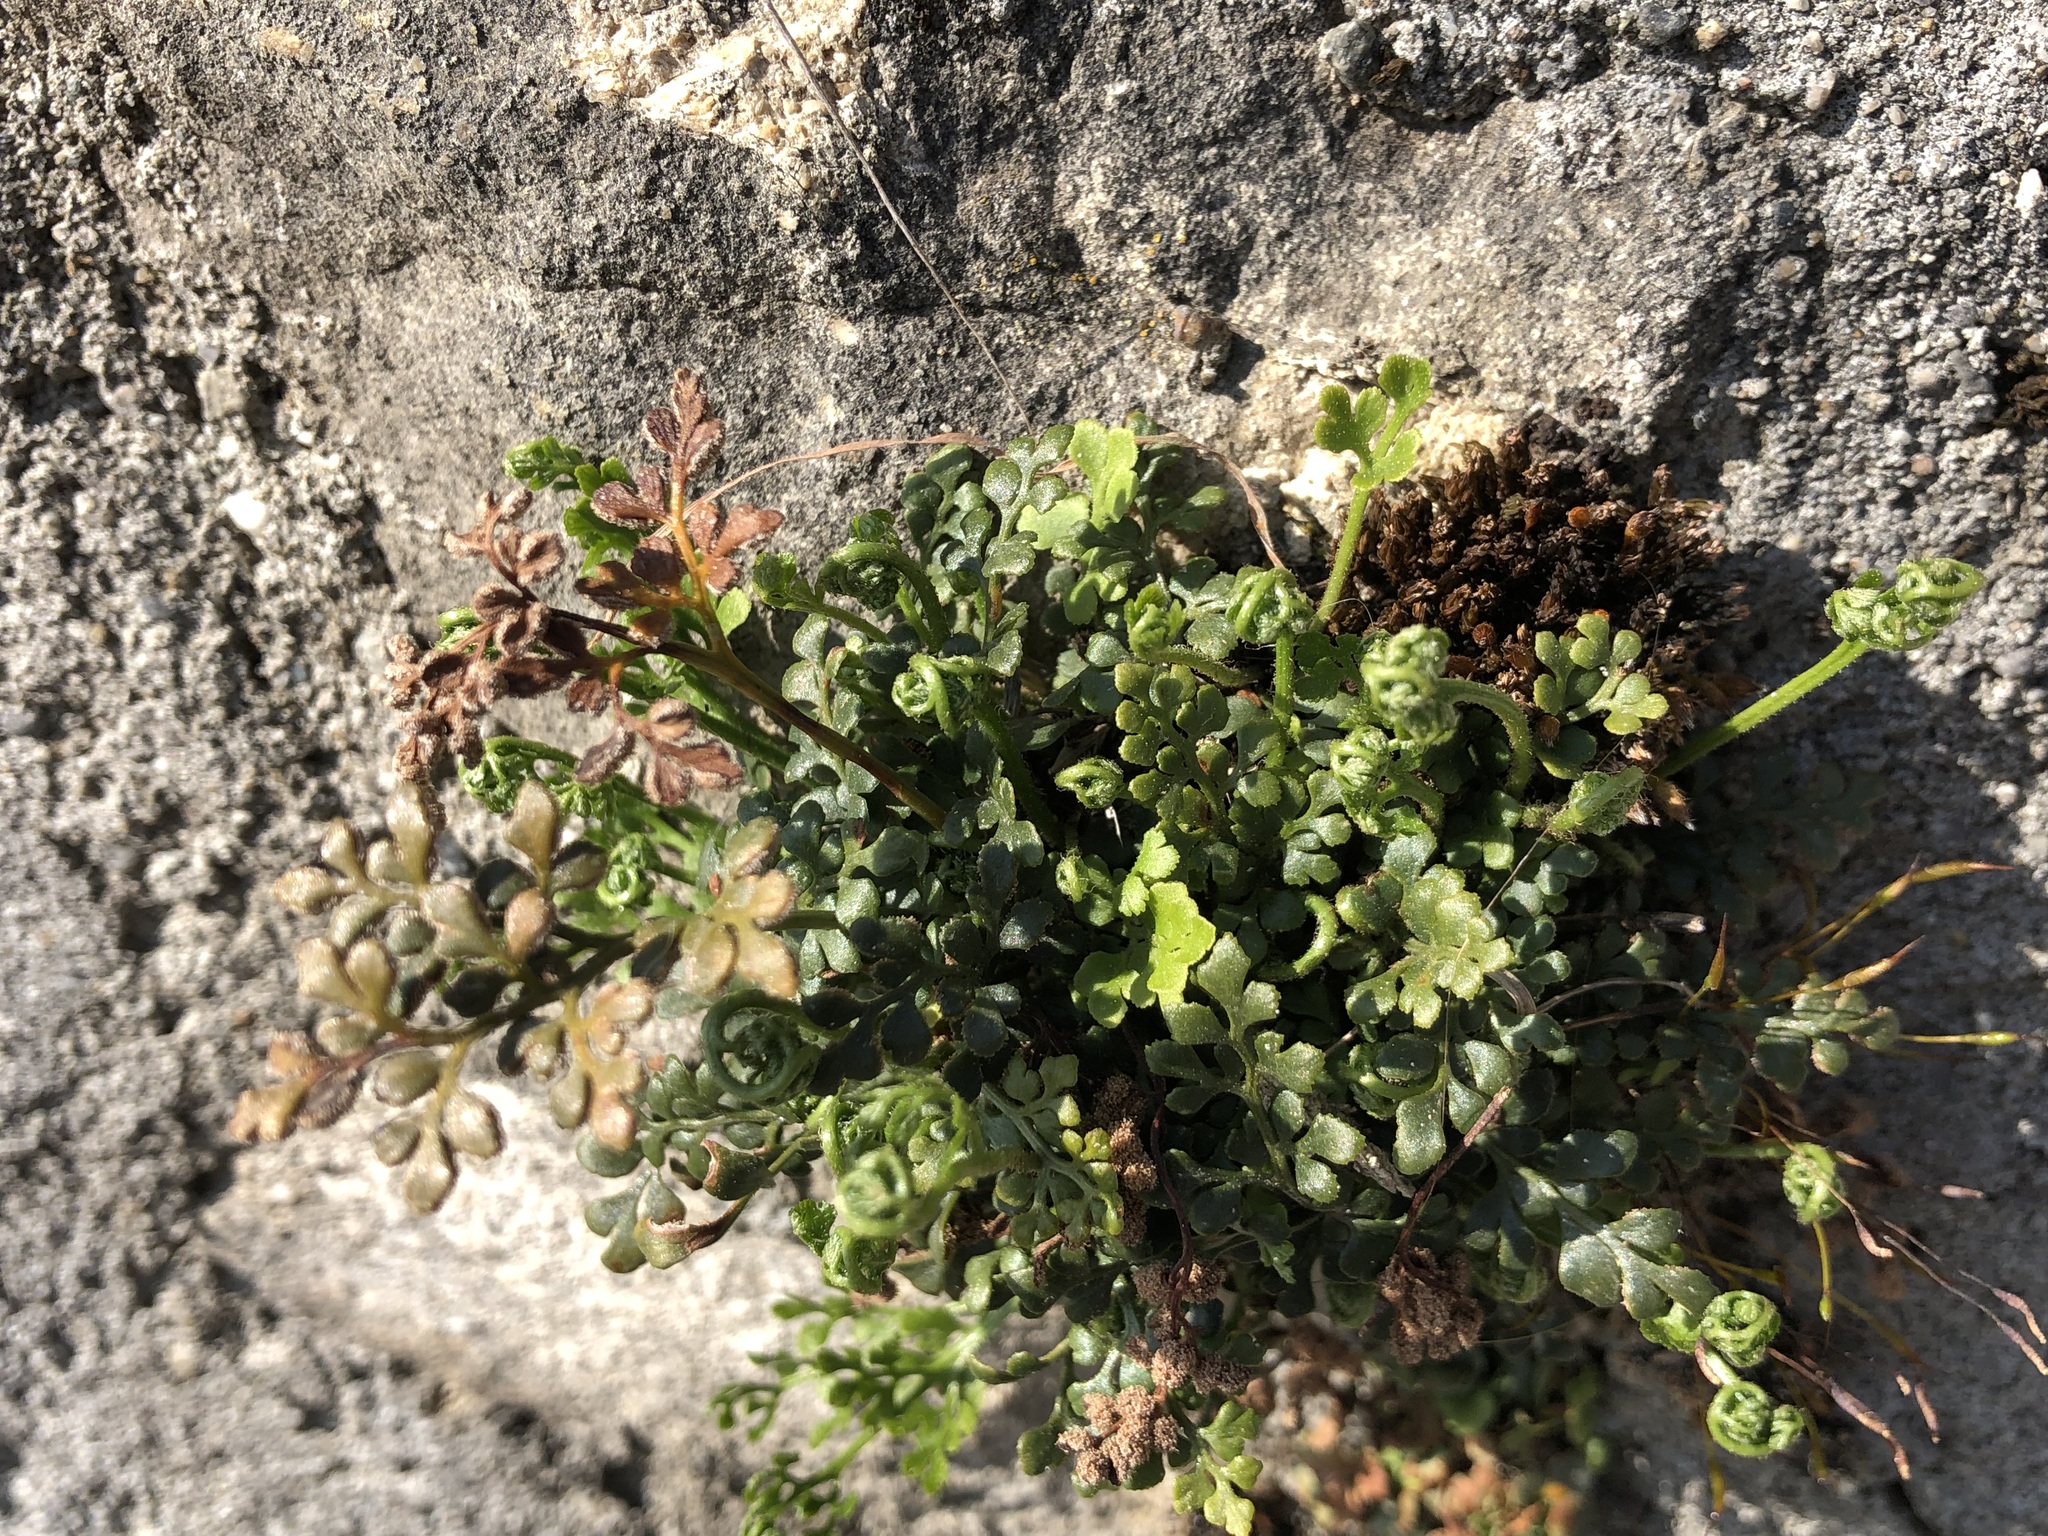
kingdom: Plantae
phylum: Tracheophyta
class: Polypodiopsida
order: Polypodiales
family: Aspleniaceae
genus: Asplenium
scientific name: Asplenium ruta-muraria
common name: Wall-rue
